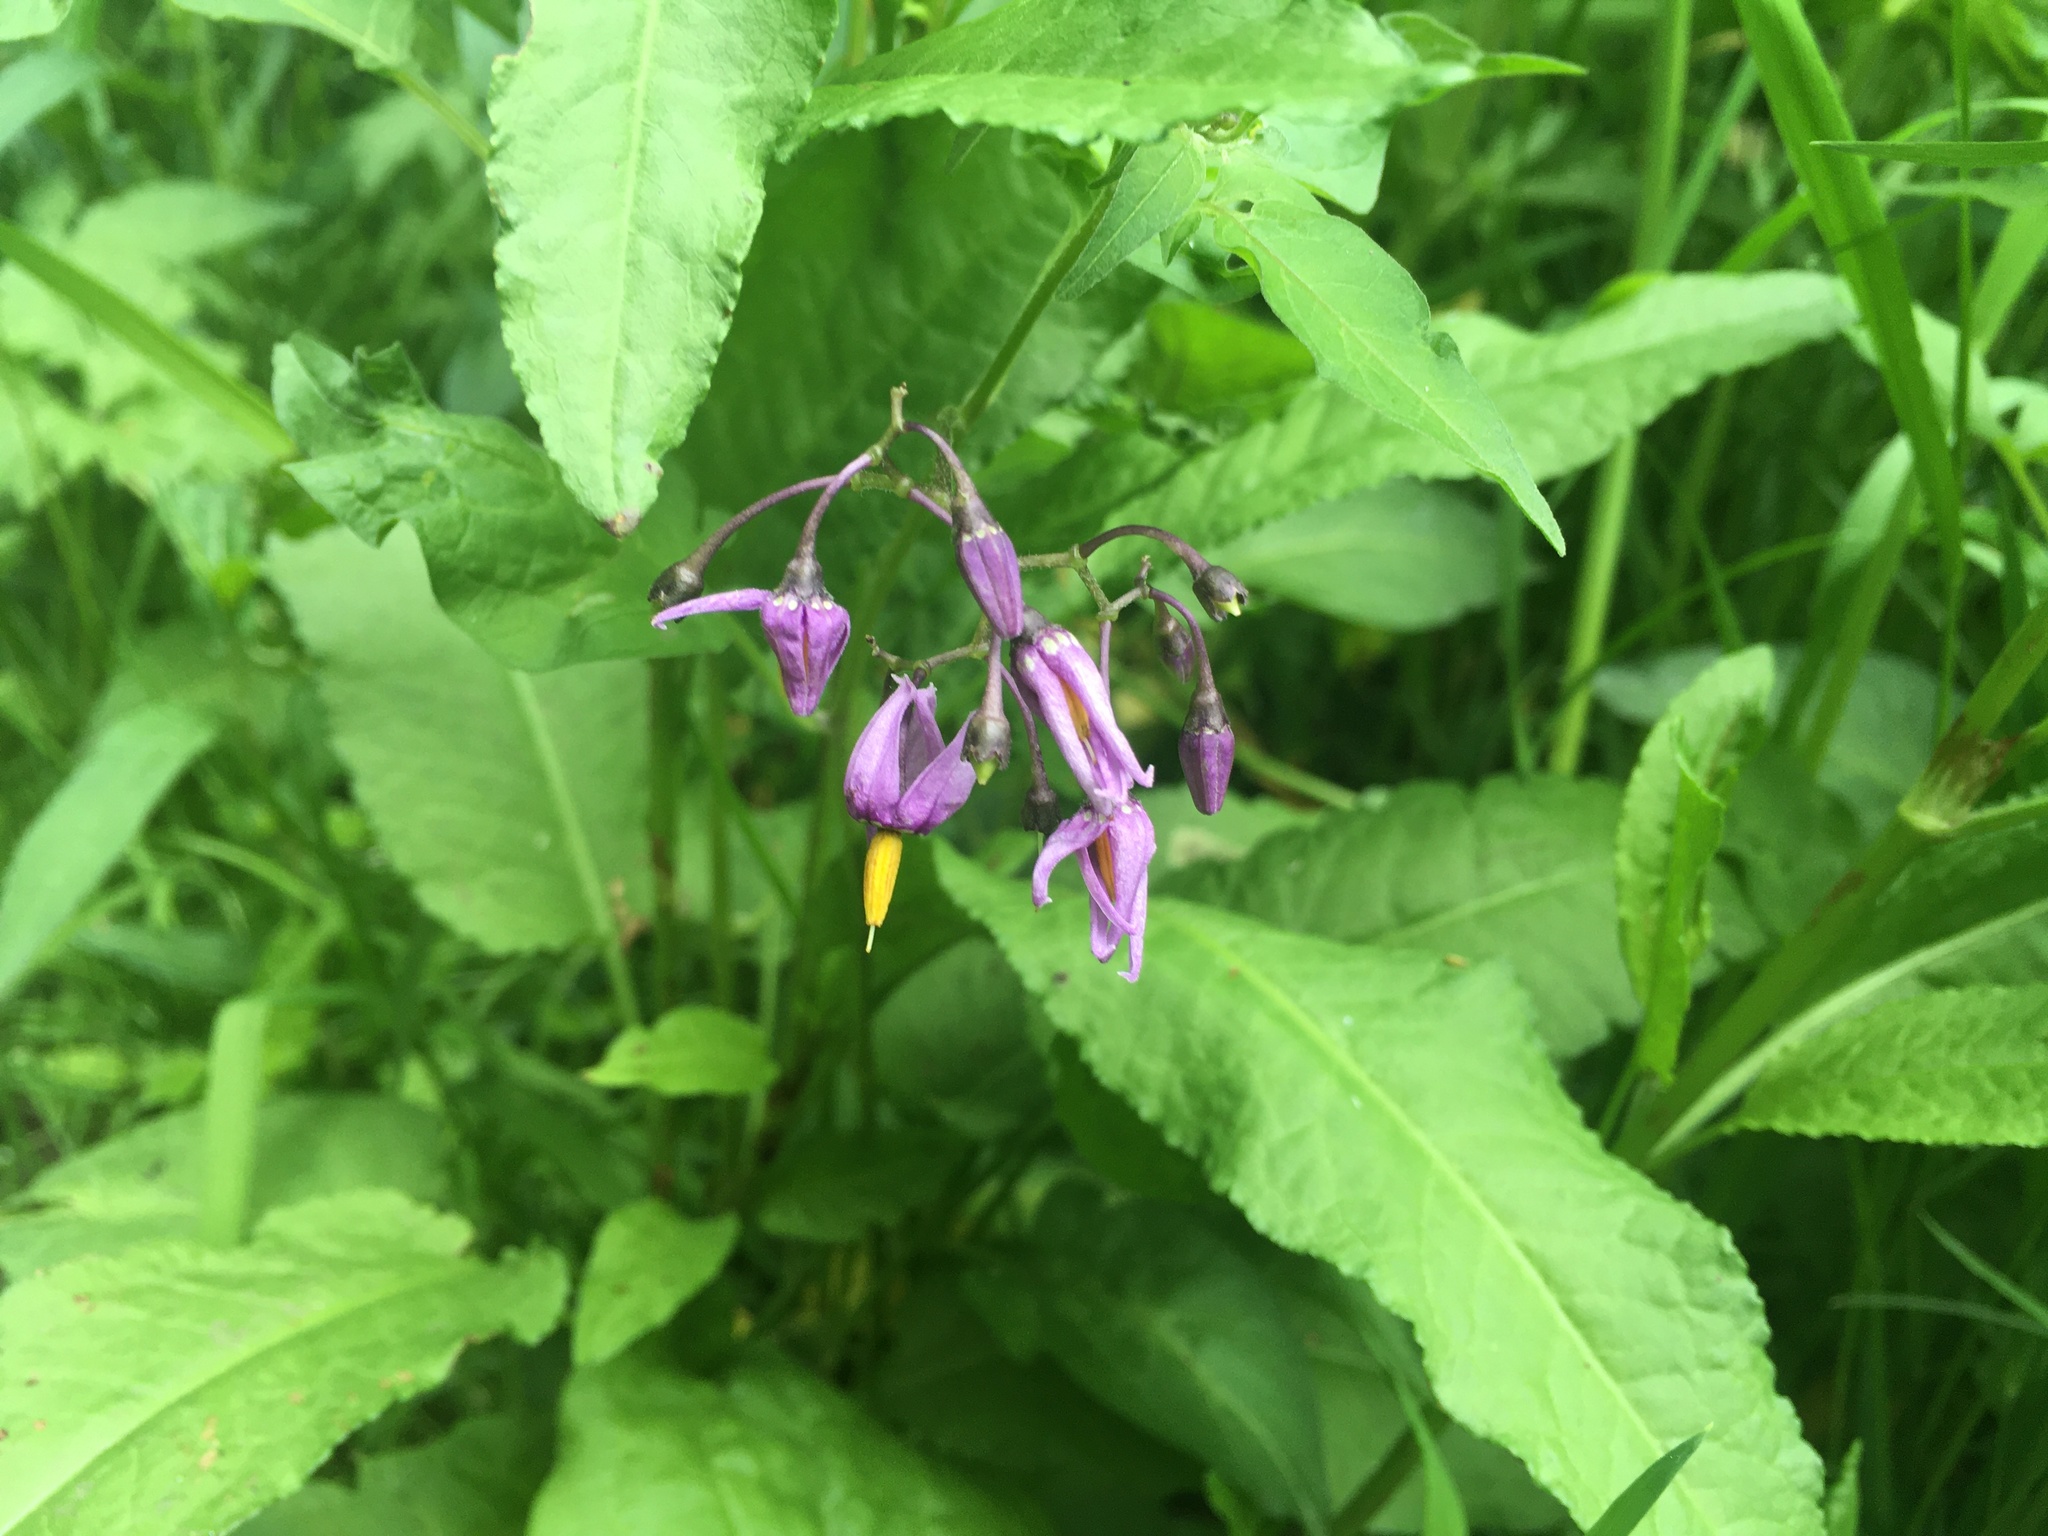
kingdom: Plantae
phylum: Tracheophyta
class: Magnoliopsida
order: Solanales
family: Solanaceae
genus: Solanum
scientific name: Solanum dulcamara
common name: Climbing nightshade
